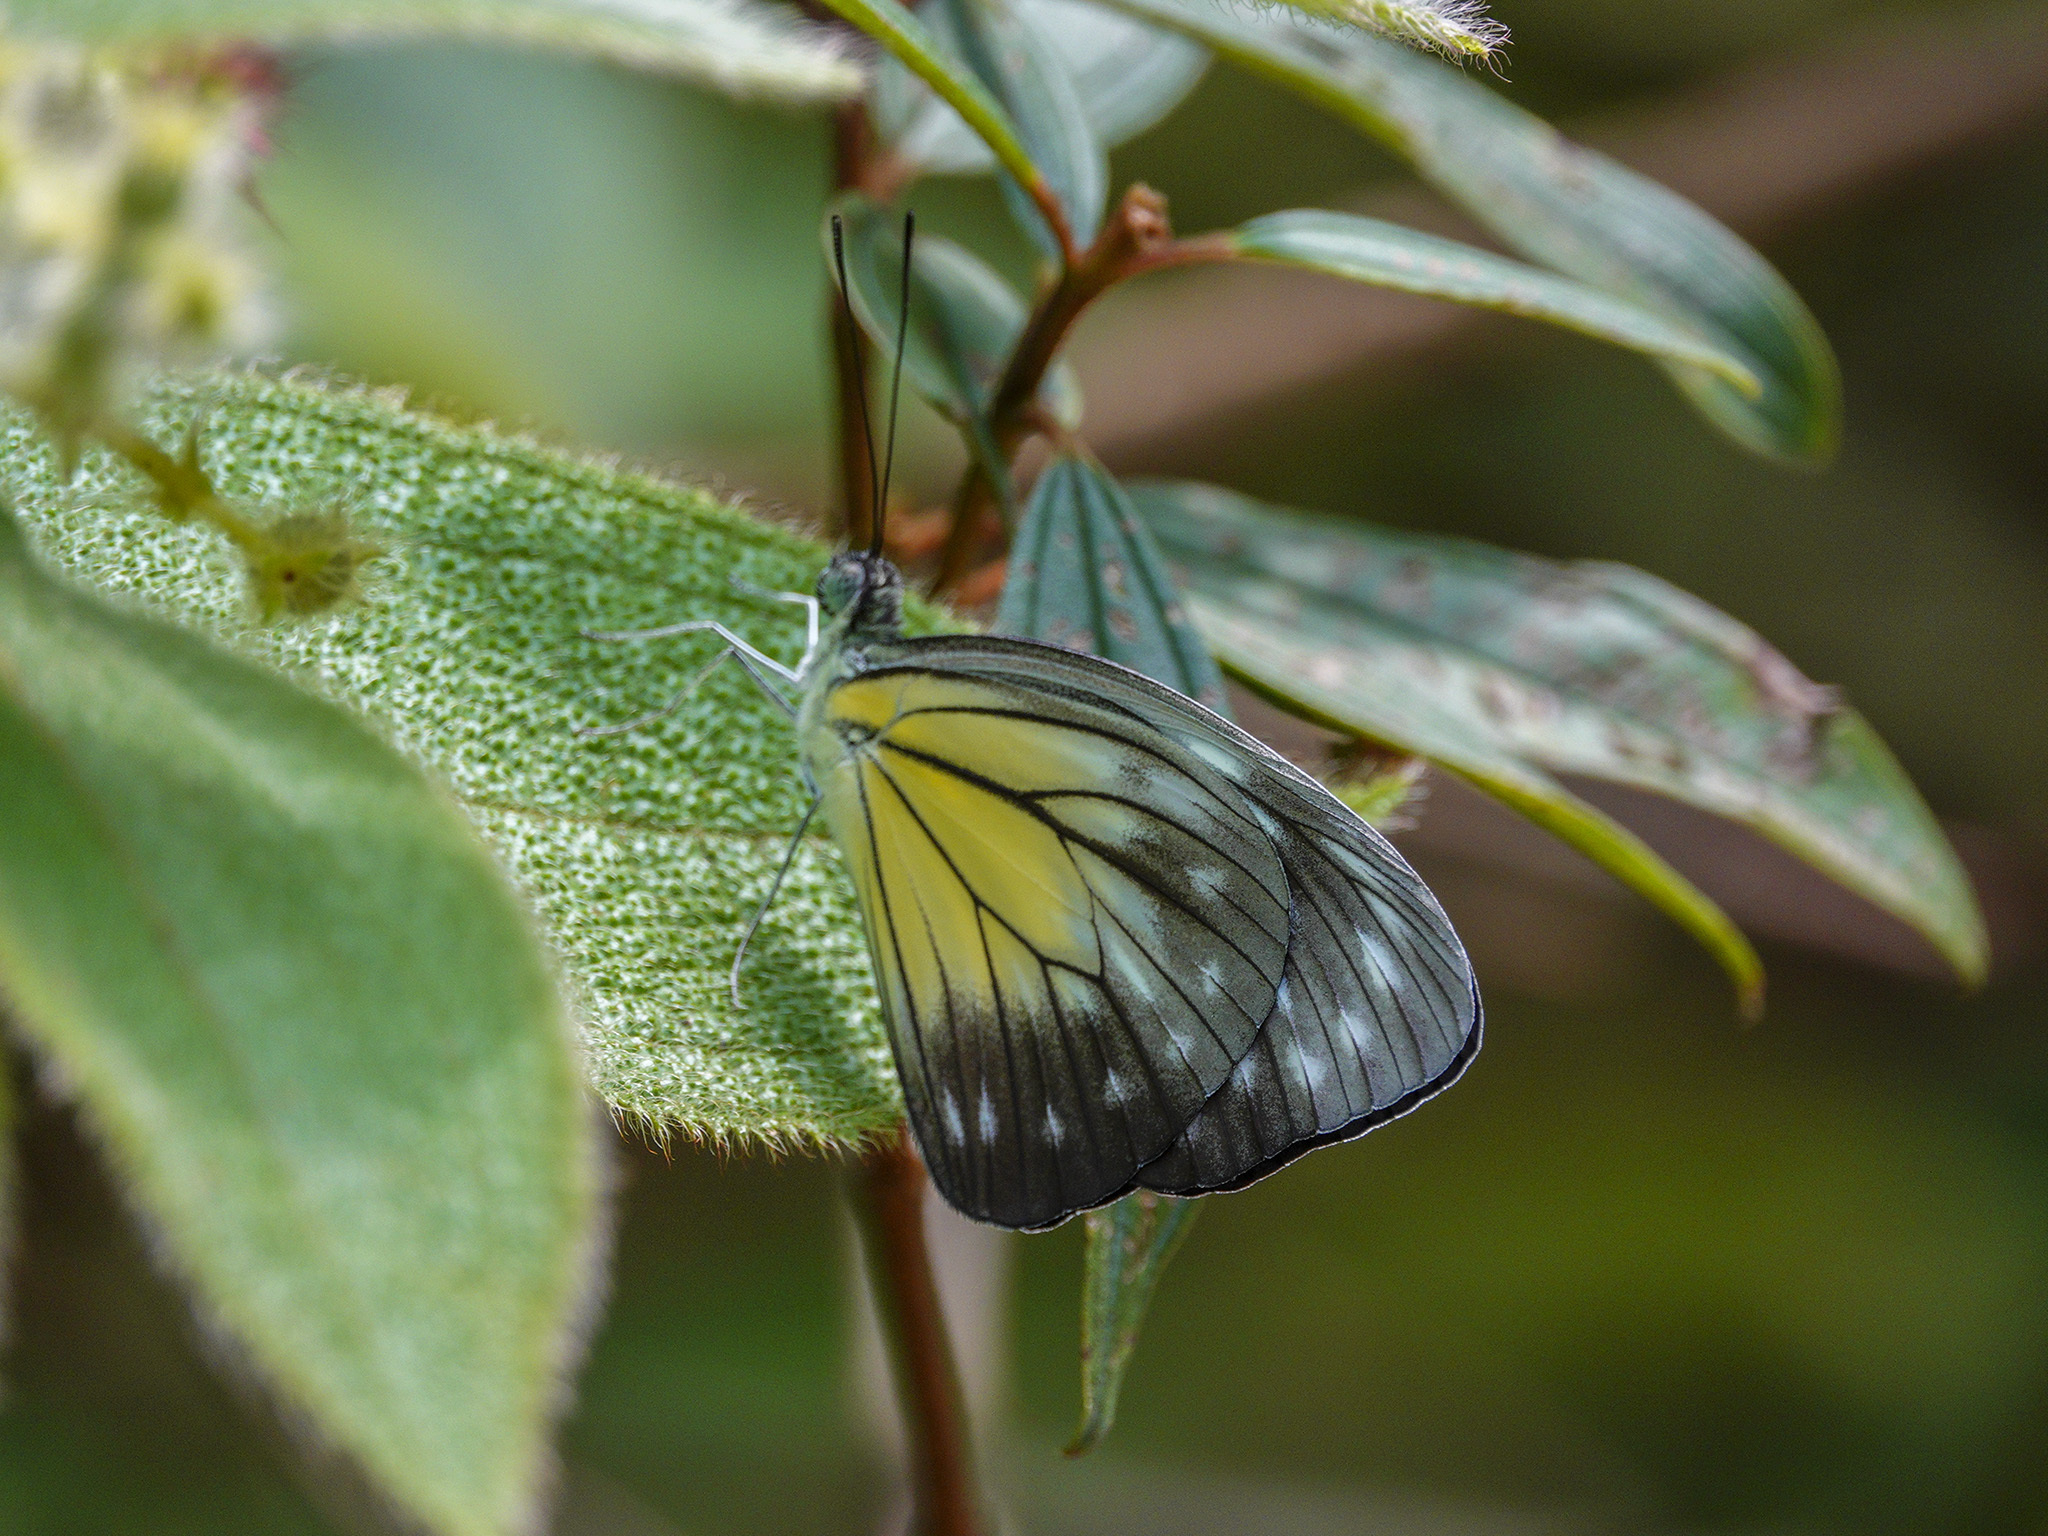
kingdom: Animalia
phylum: Arthropoda
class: Insecta
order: Lepidoptera
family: Pieridae
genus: Pareronia
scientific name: Pareronia valeria
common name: Common wanderer?
